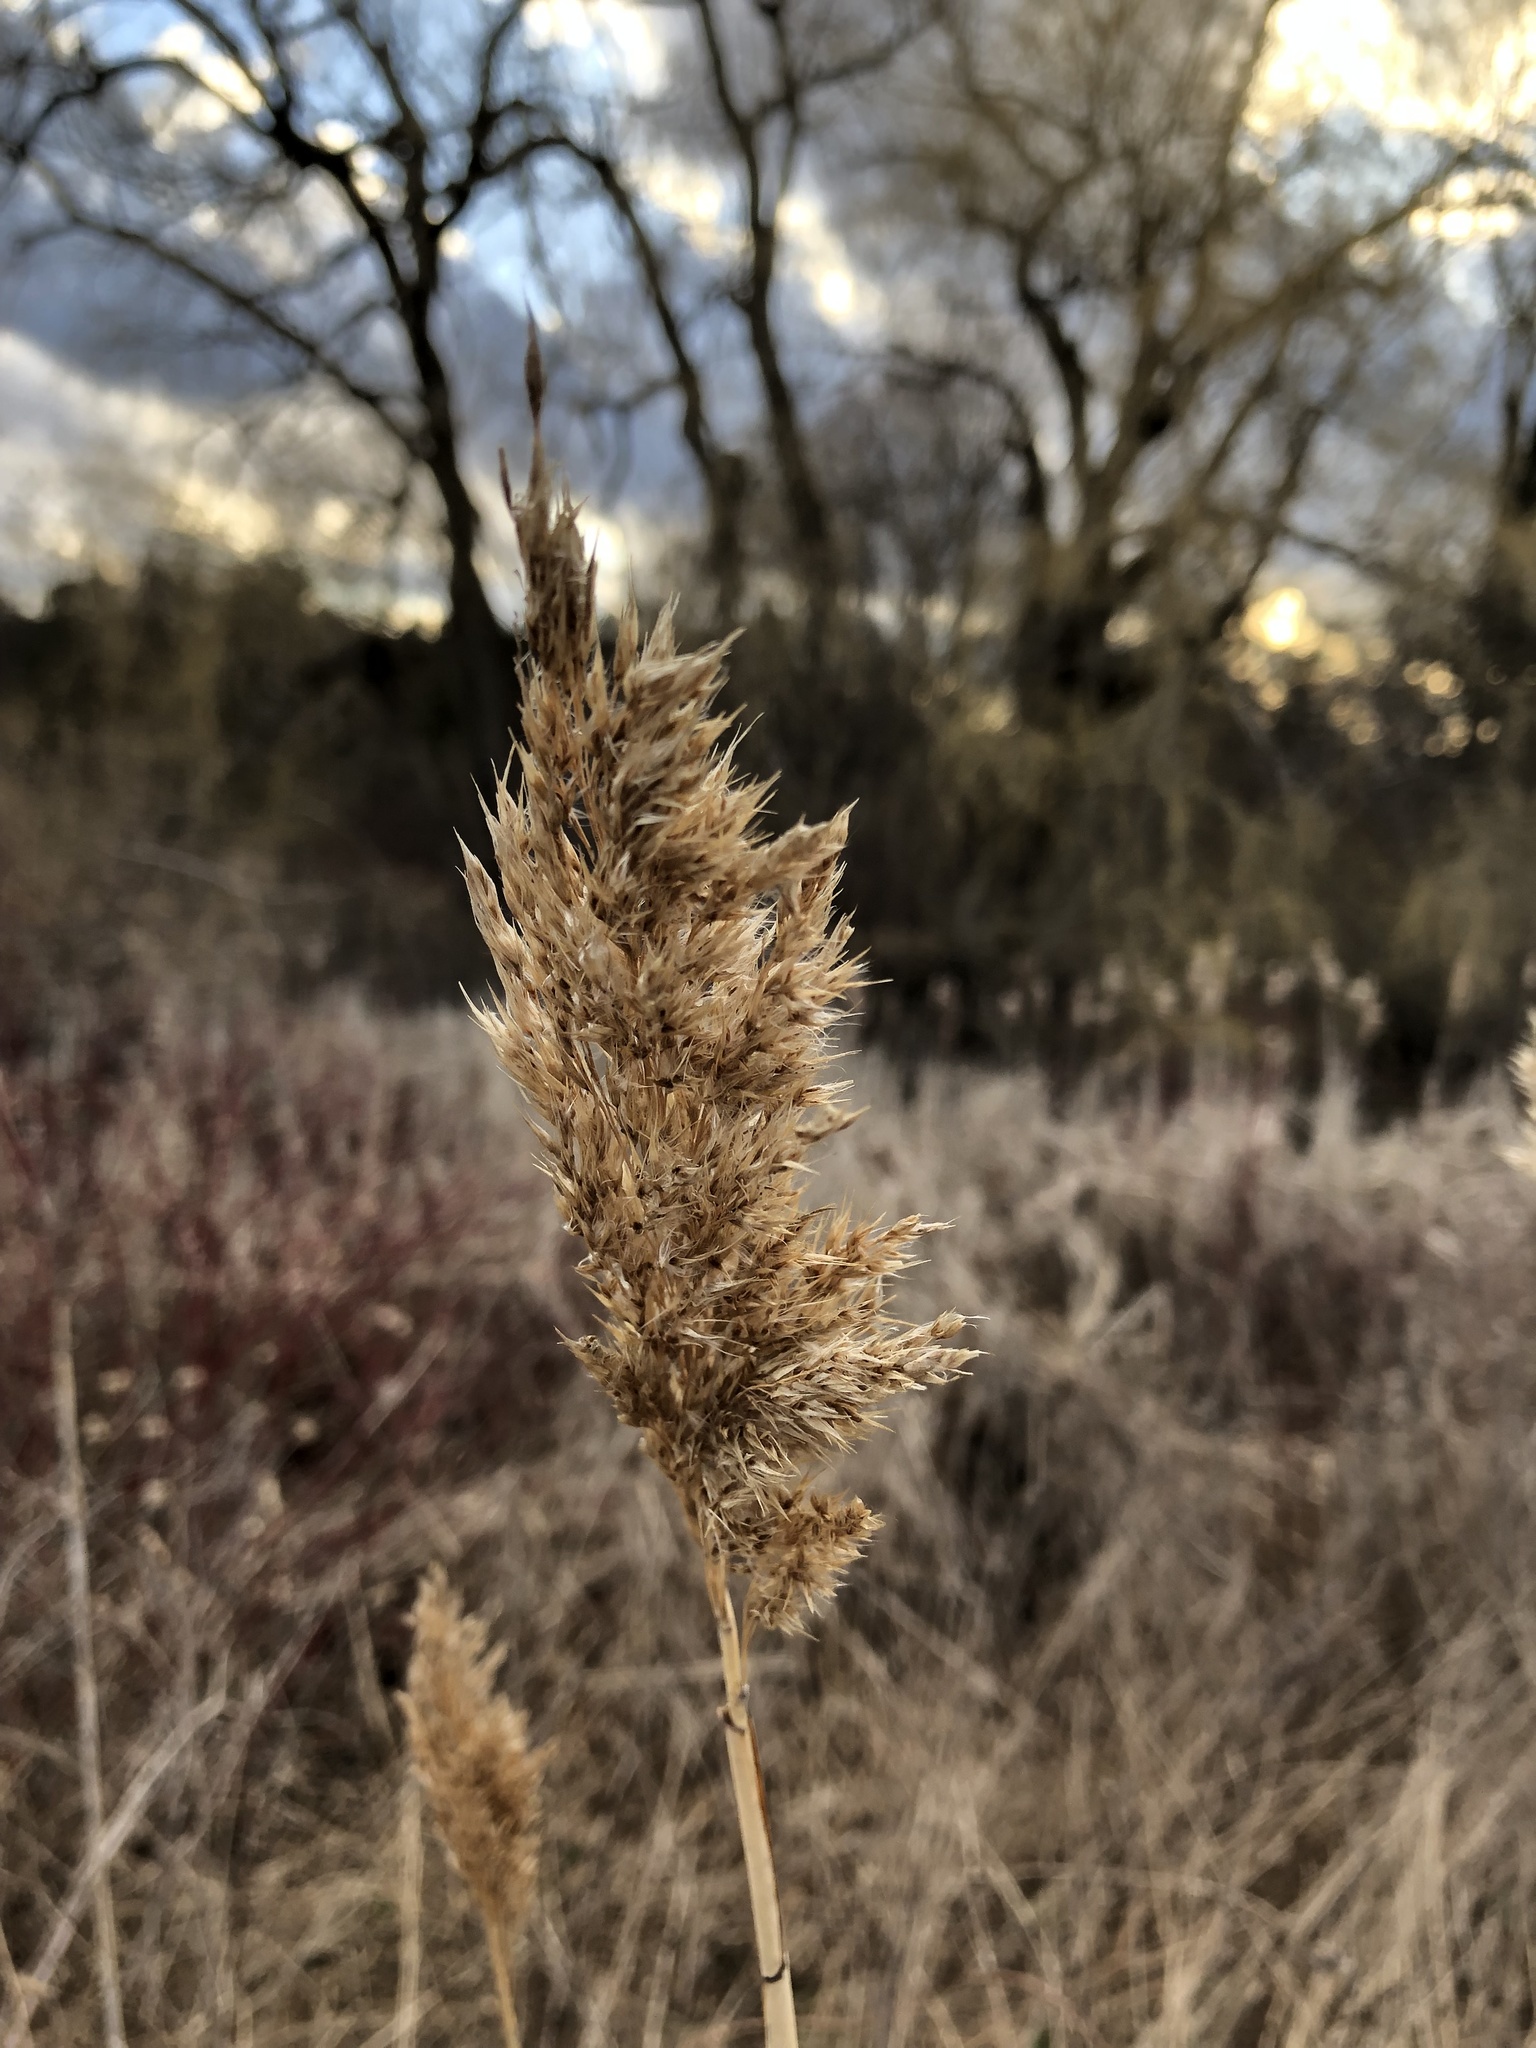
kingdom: Plantae
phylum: Tracheophyta
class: Liliopsida
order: Poales
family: Poaceae
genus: Phragmites
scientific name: Phragmites australis
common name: Common reed
